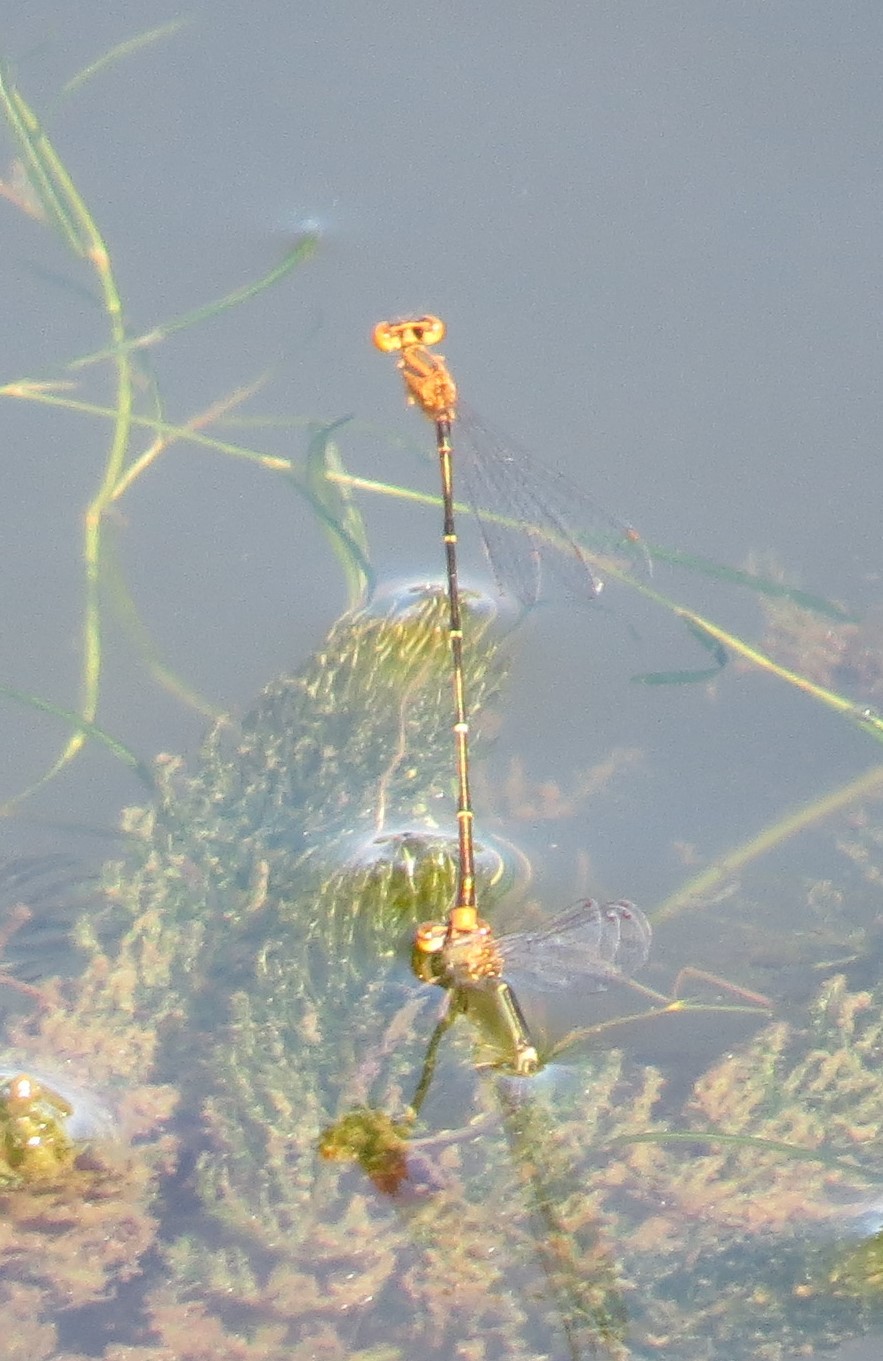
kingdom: Animalia
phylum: Arthropoda
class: Insecta
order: Odonata
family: Coenagrionidae
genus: Enallagma
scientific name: Enallagma signatum
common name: Orange bluet
